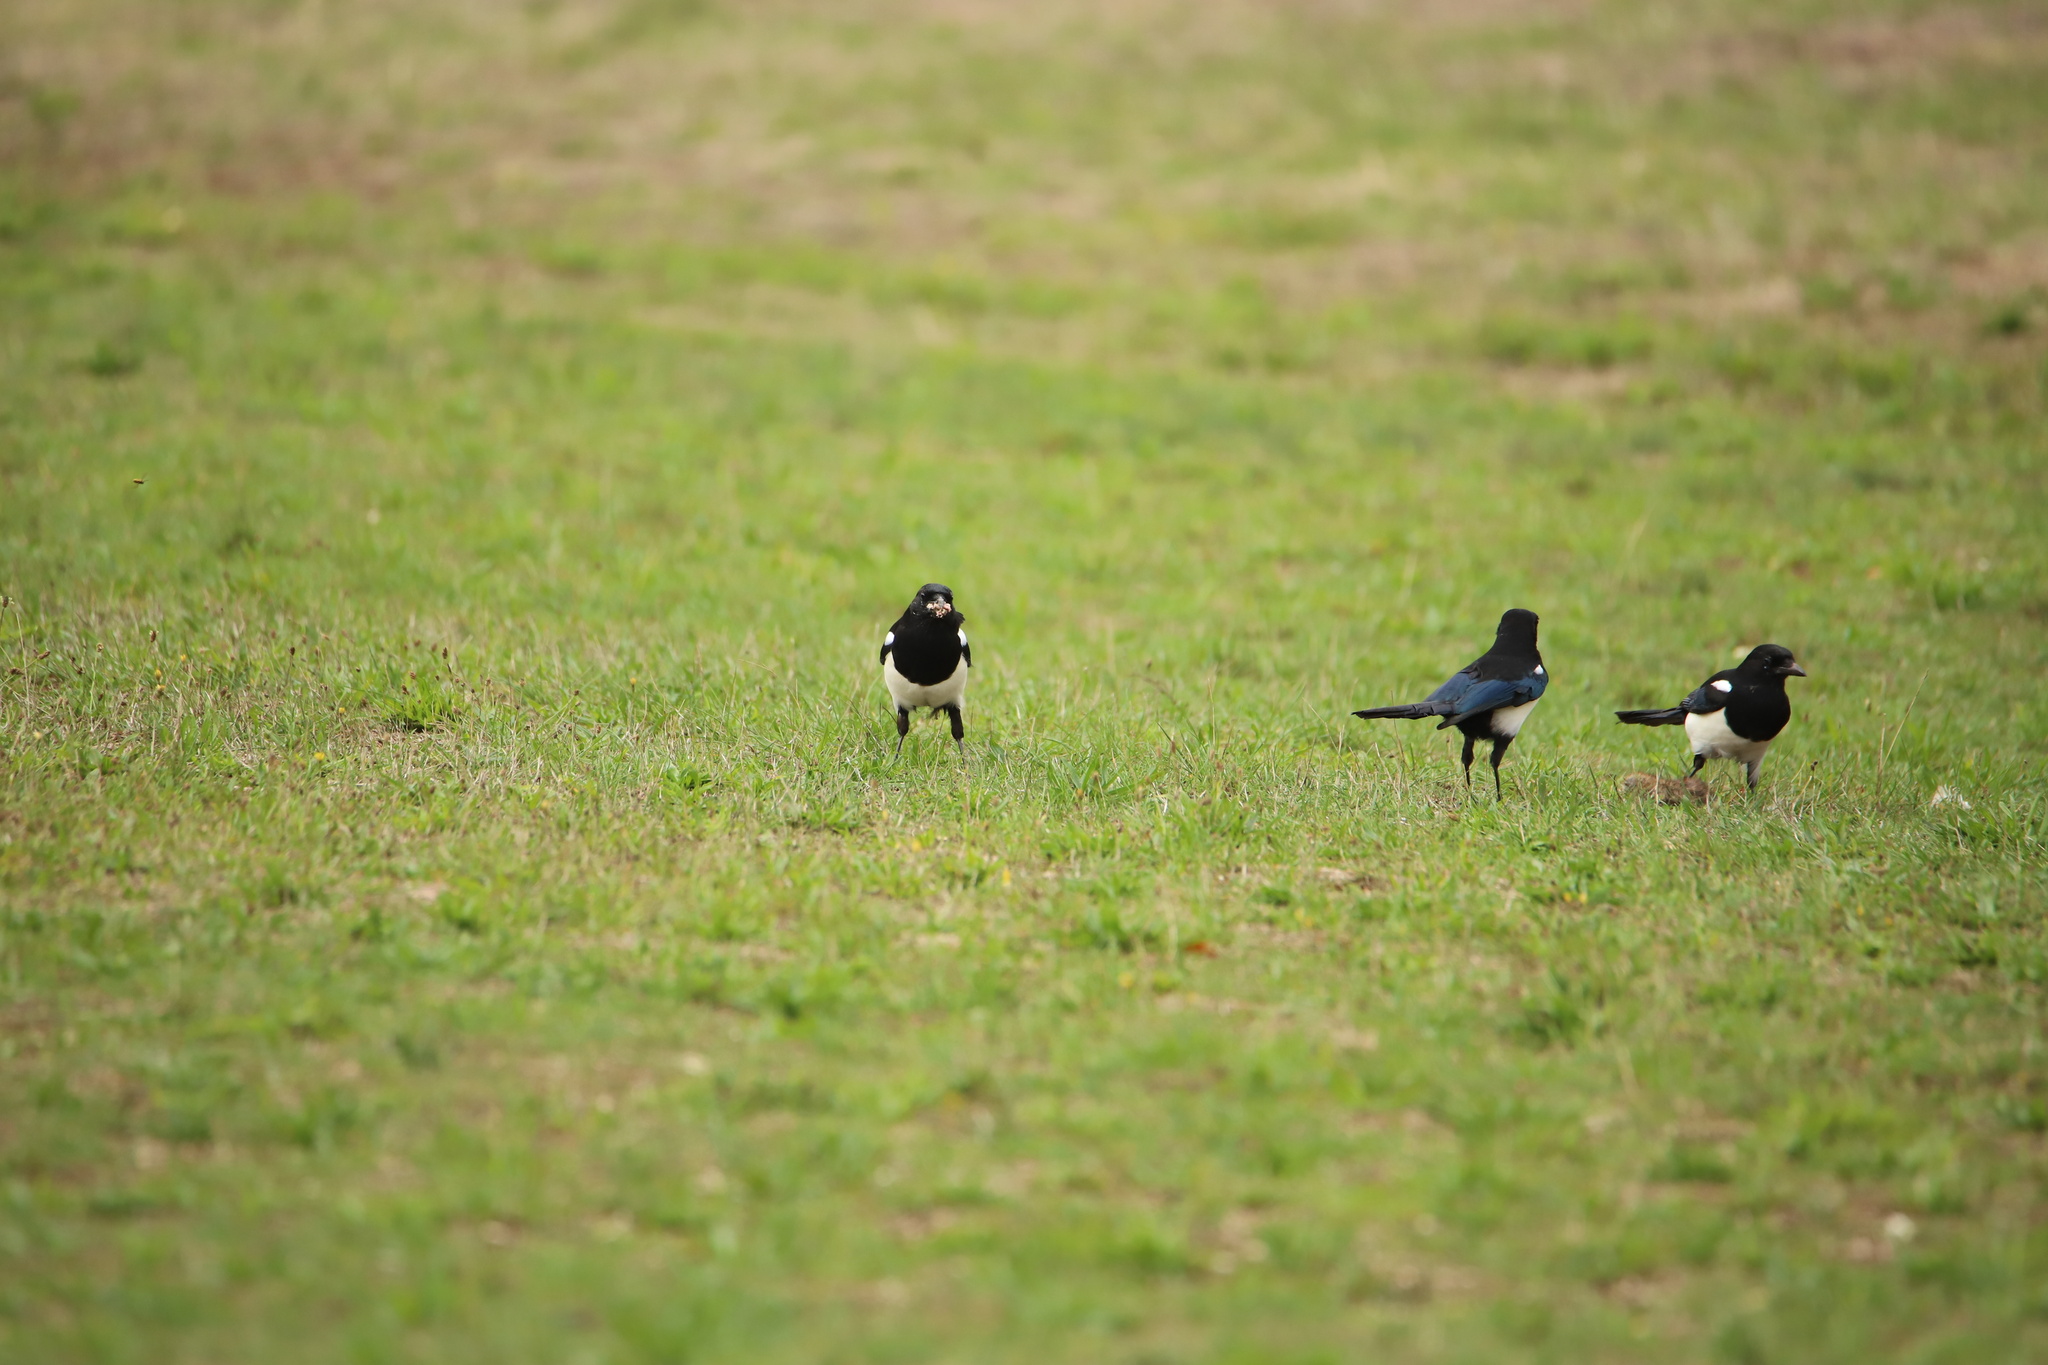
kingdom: Animalia
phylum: Chordata
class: Aves
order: Passeriformes
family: Corvidae
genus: Pica
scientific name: Pica pica
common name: Eurasian magpie
